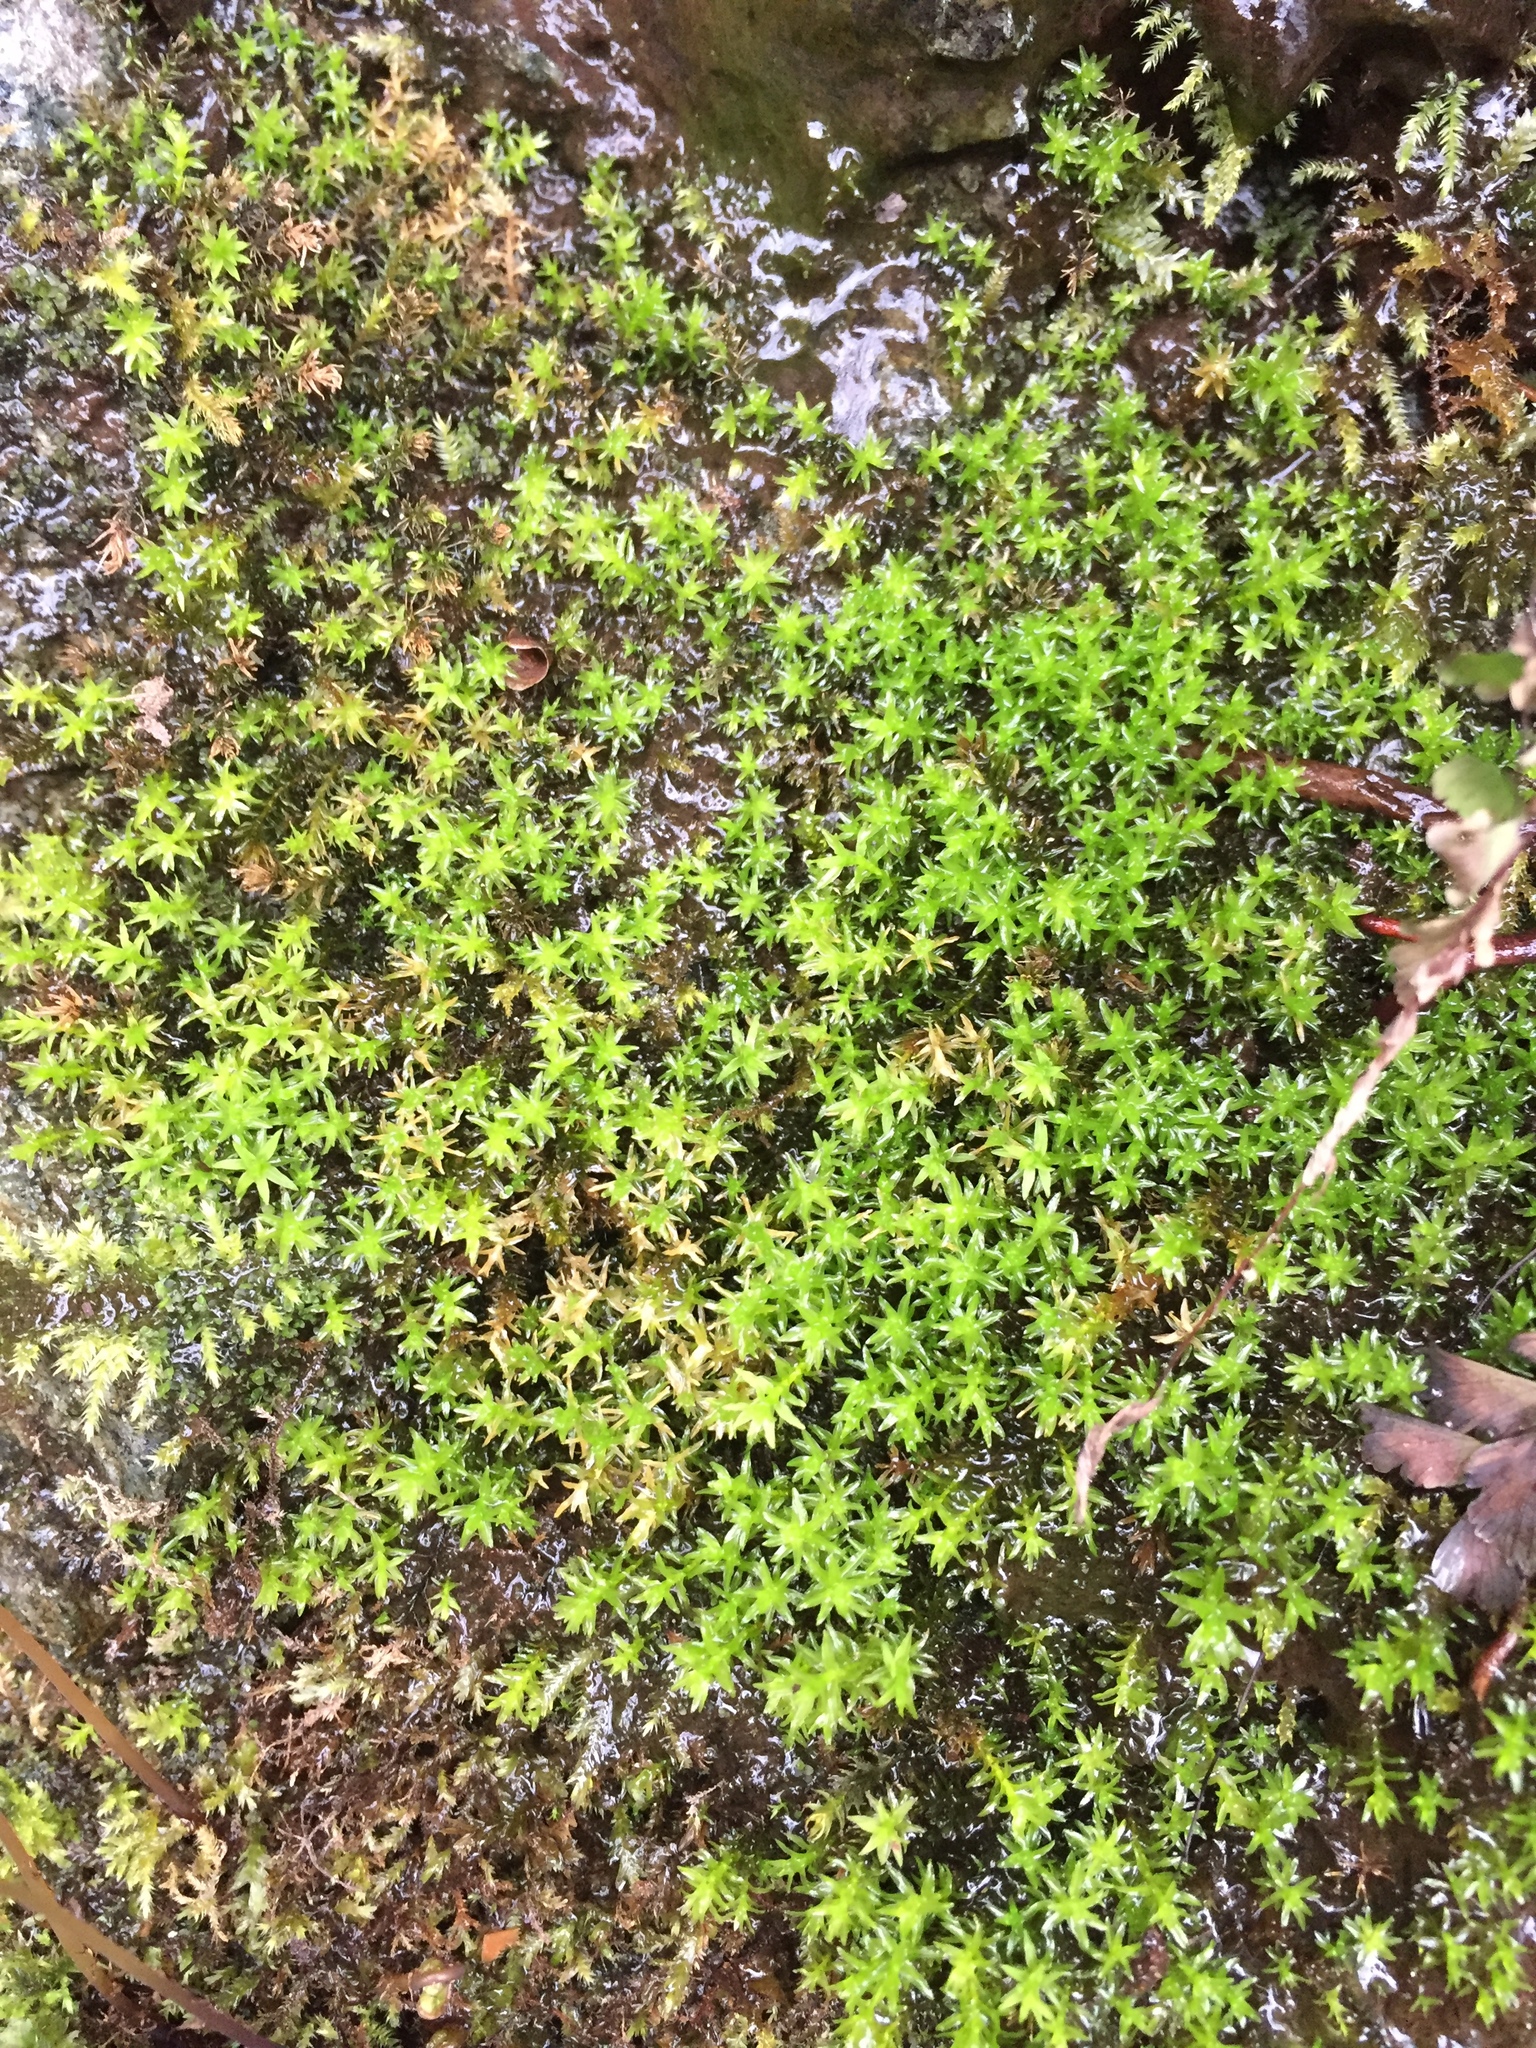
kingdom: Plantae
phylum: Bryophyta
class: Bryopsida
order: Dicranales
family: Aongstroemiaceae
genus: Dichodontium
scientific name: Dichodontium pellucidum
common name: Transparent fork moss
